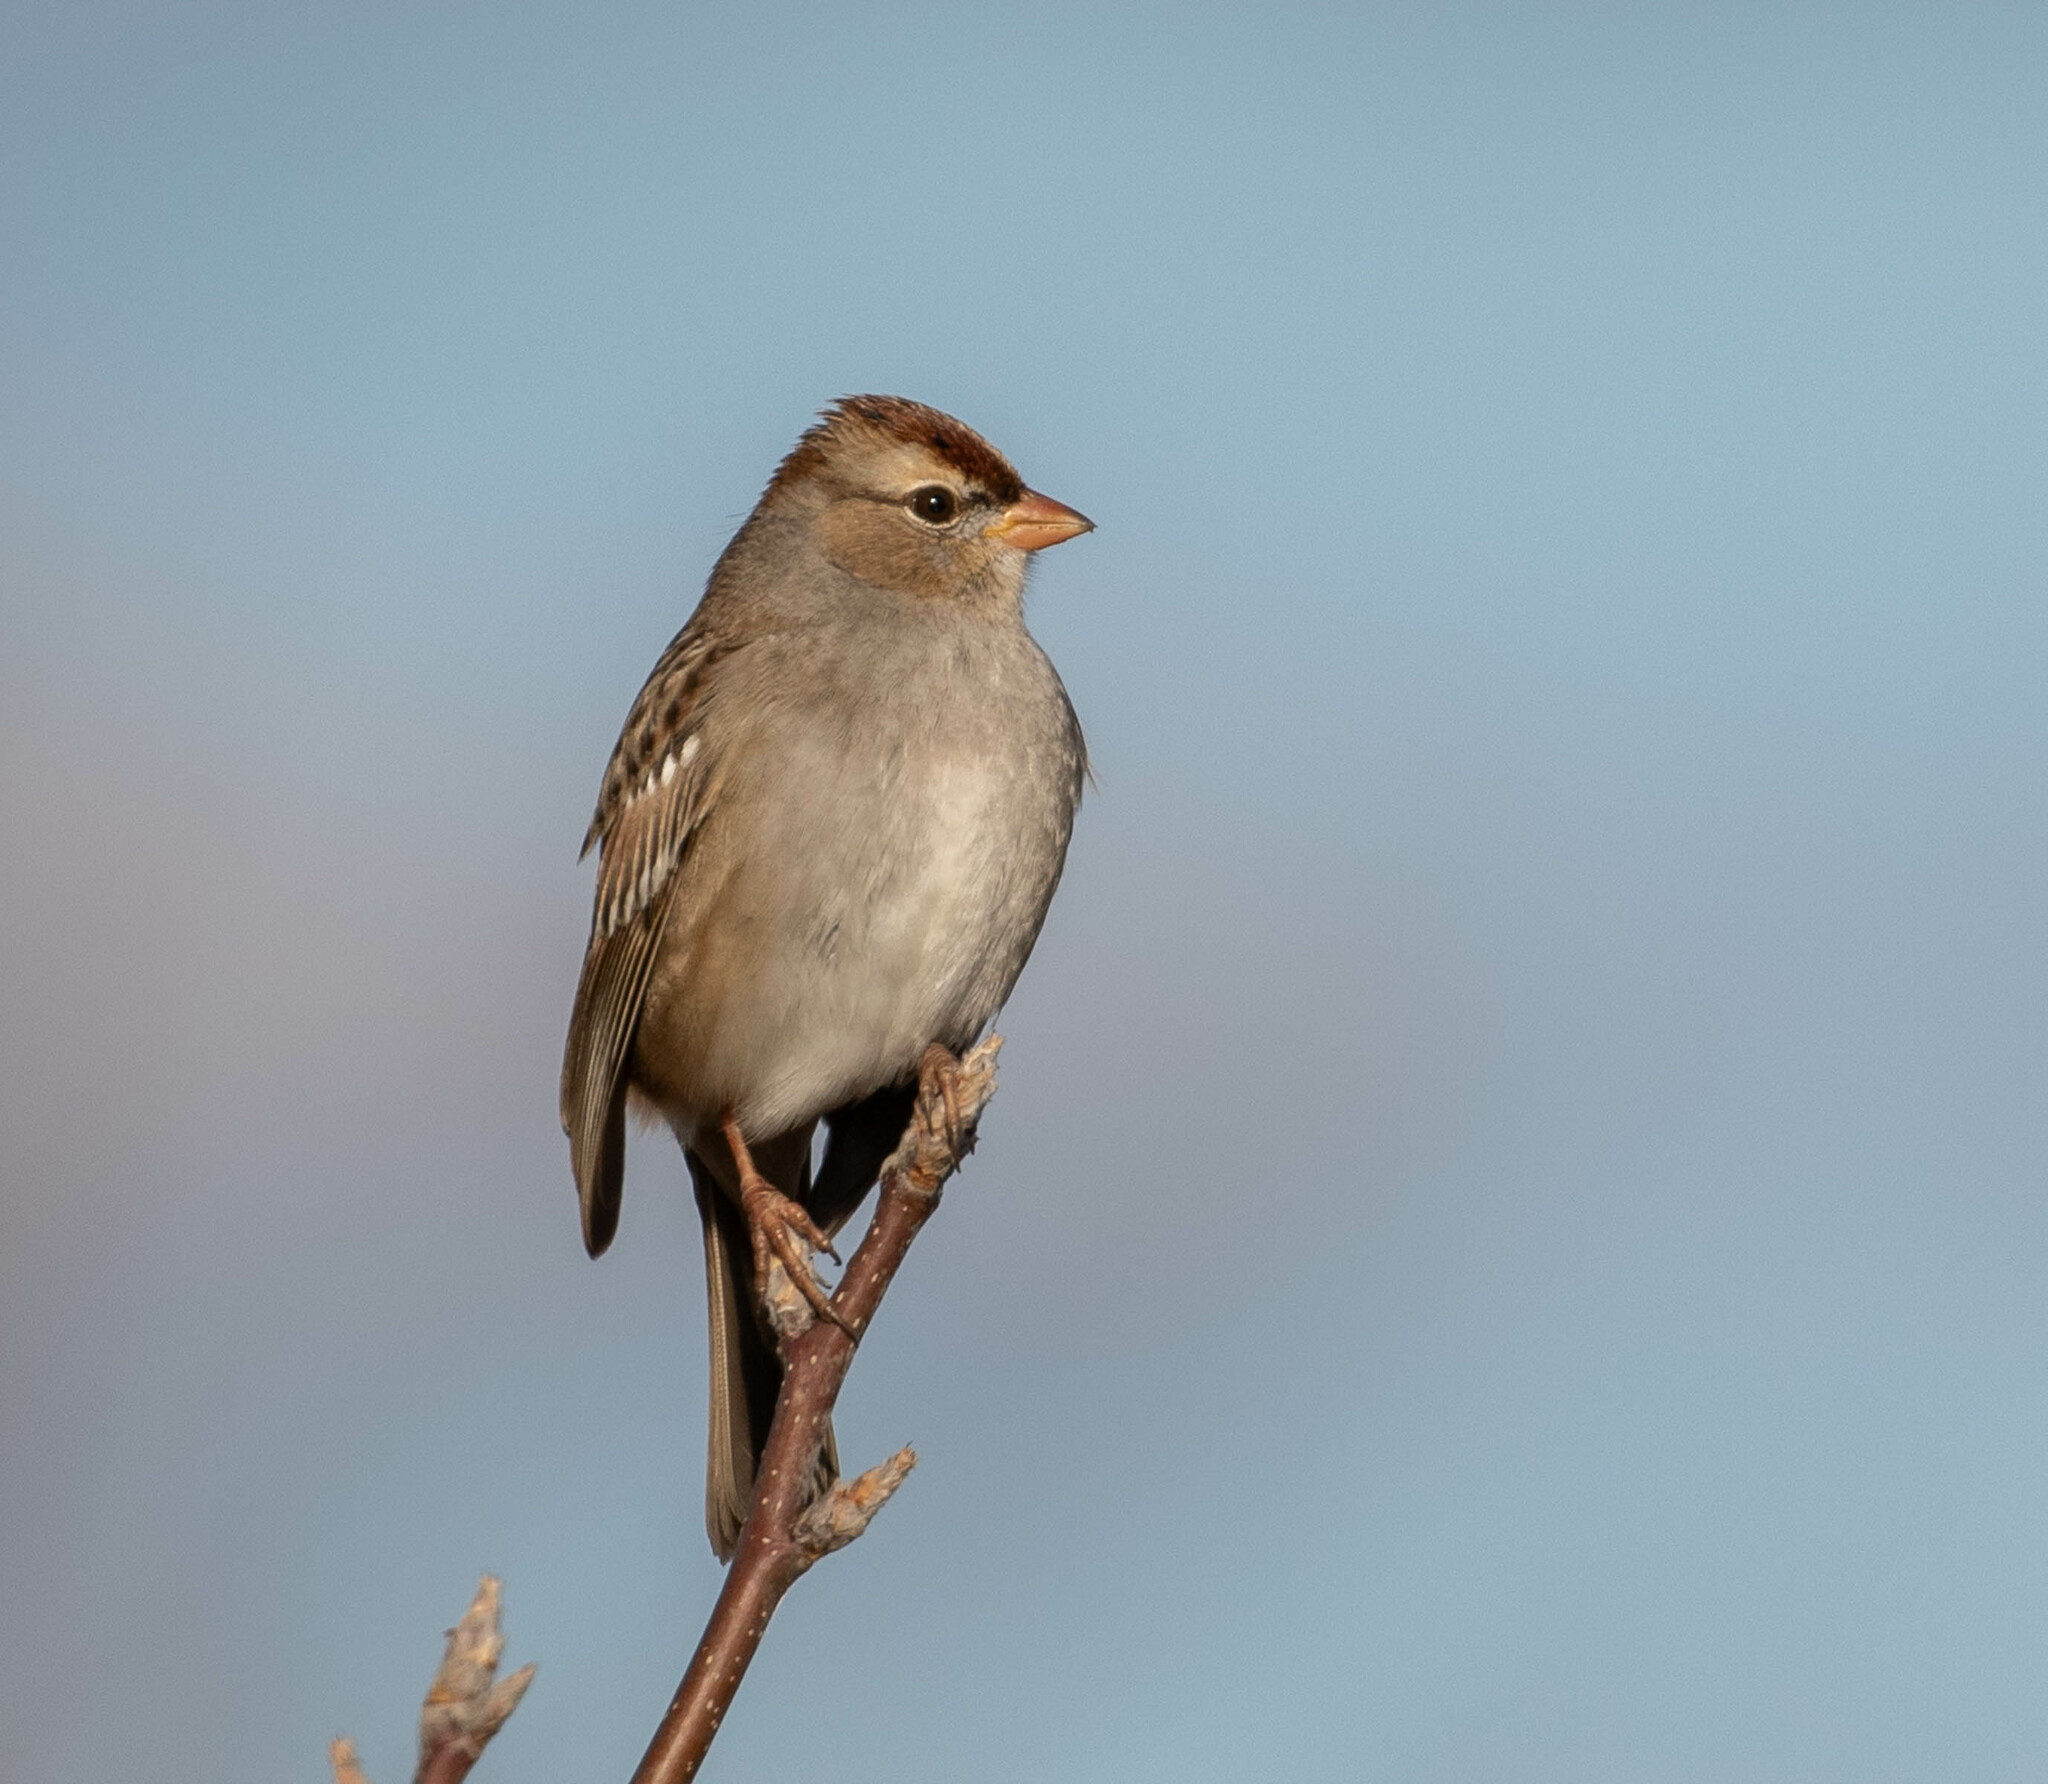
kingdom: Animalia
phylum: Chordata
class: Aves
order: Passeriformes
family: Passerellidae
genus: Zonotrichia
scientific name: Zonotrichia leucophrys
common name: White-crowned sparrow
